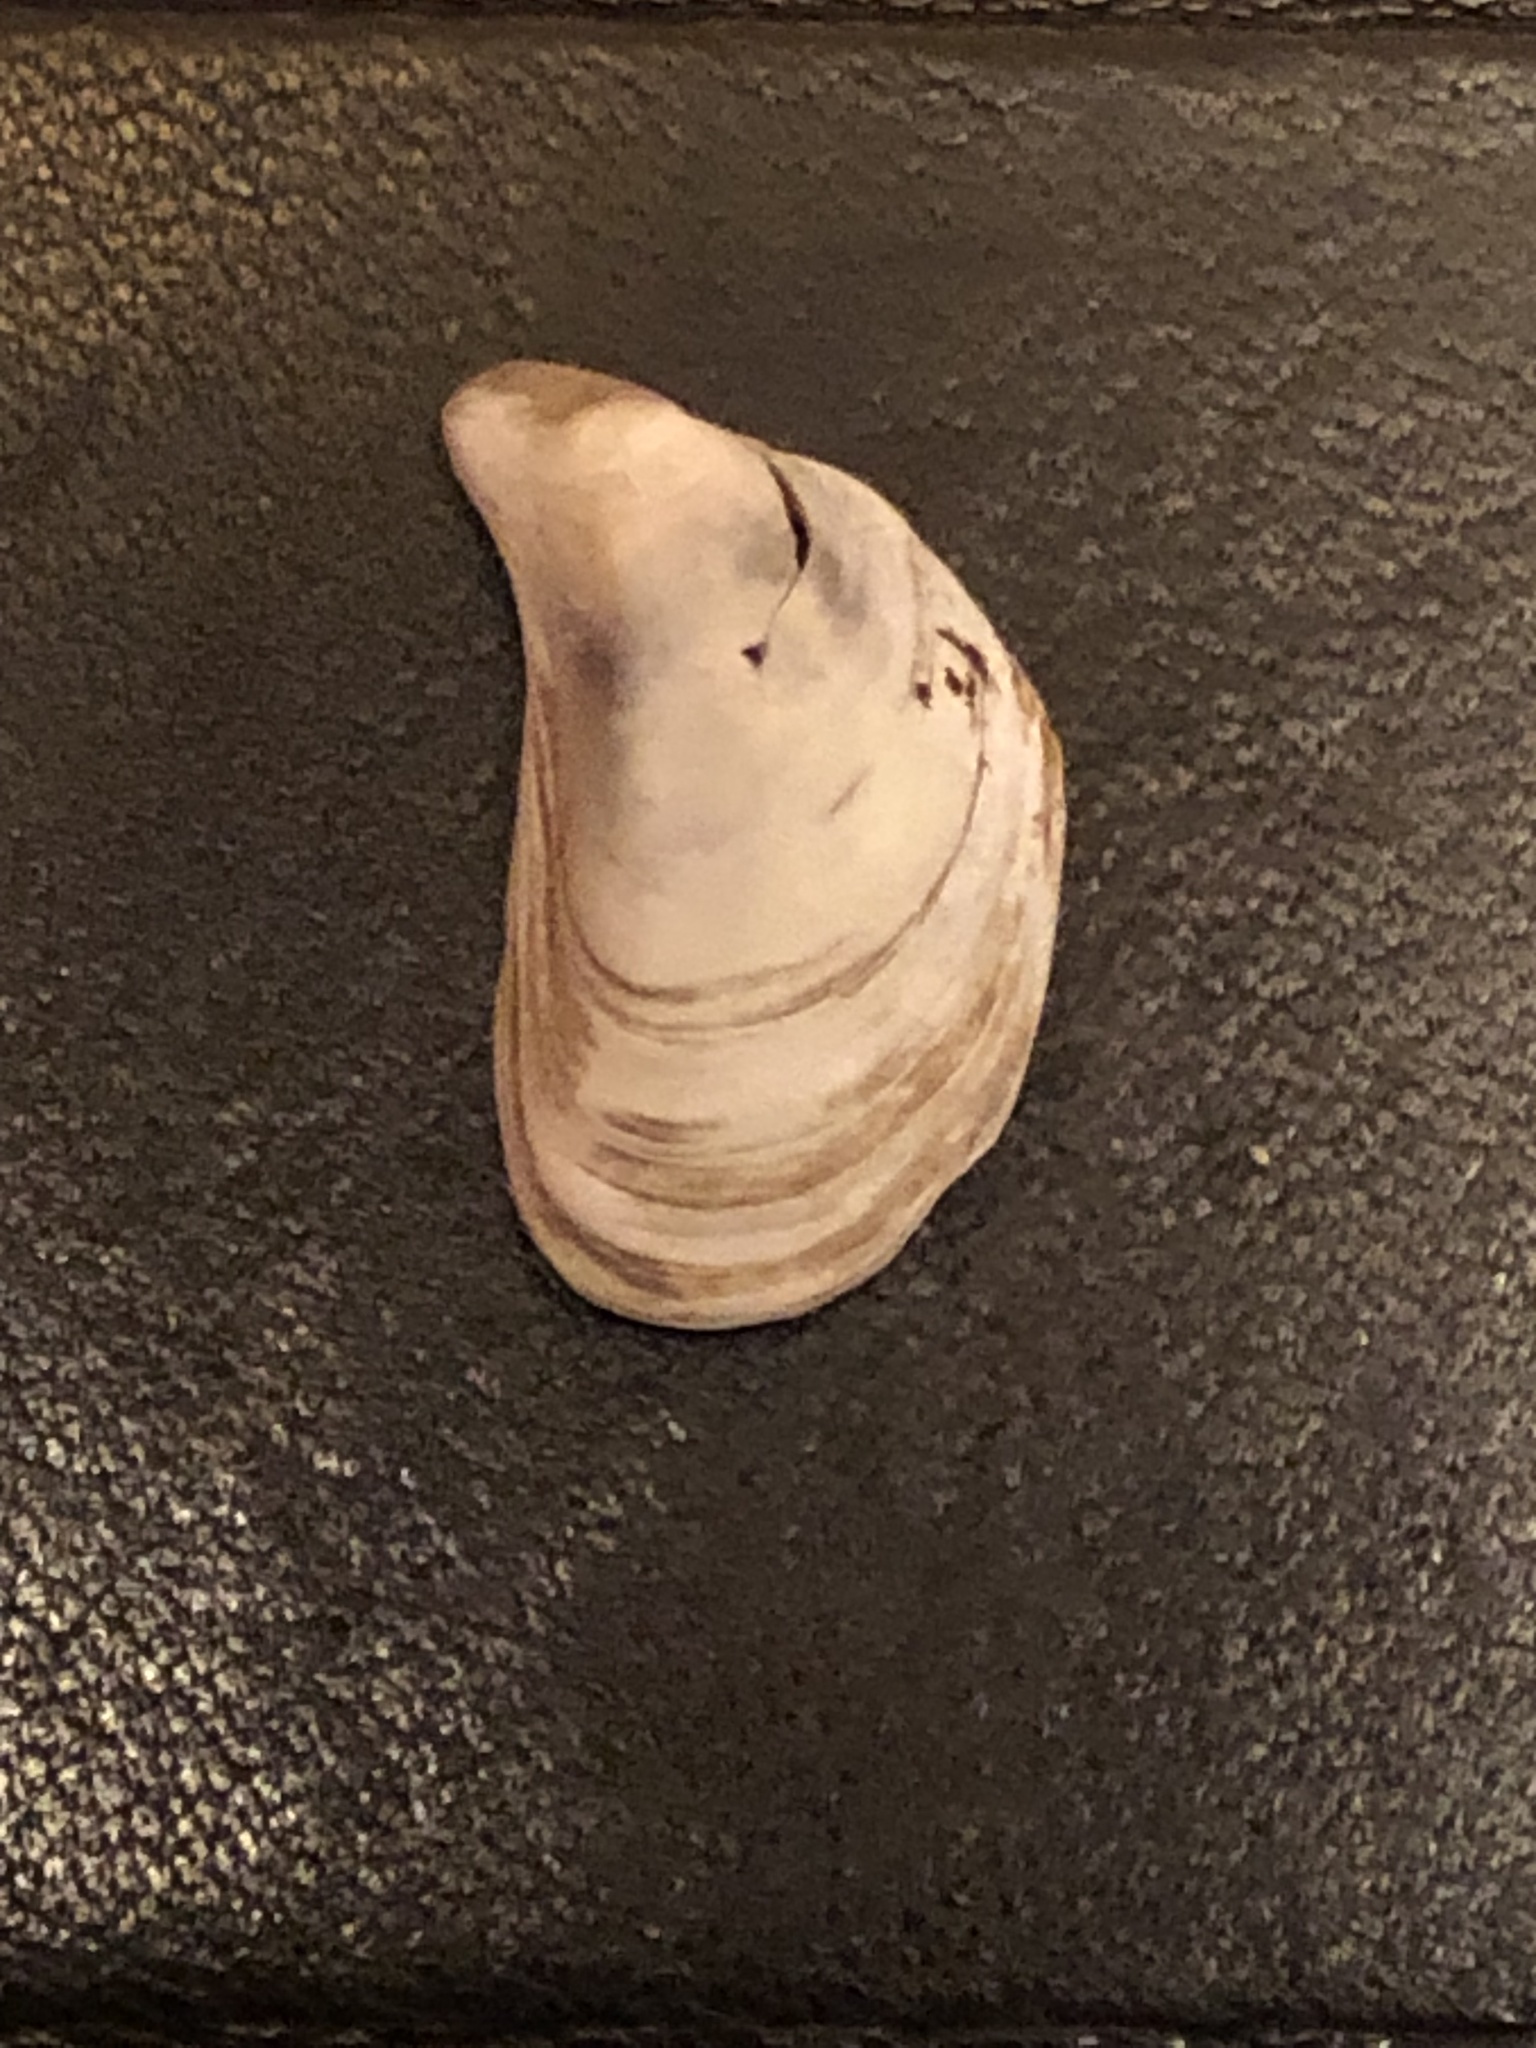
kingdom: Animalia
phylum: Mollusca
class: Bivalvia
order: Myida
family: Dreissenidae
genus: Dreissena
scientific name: Dreissena bugensis
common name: Quagga mussel
